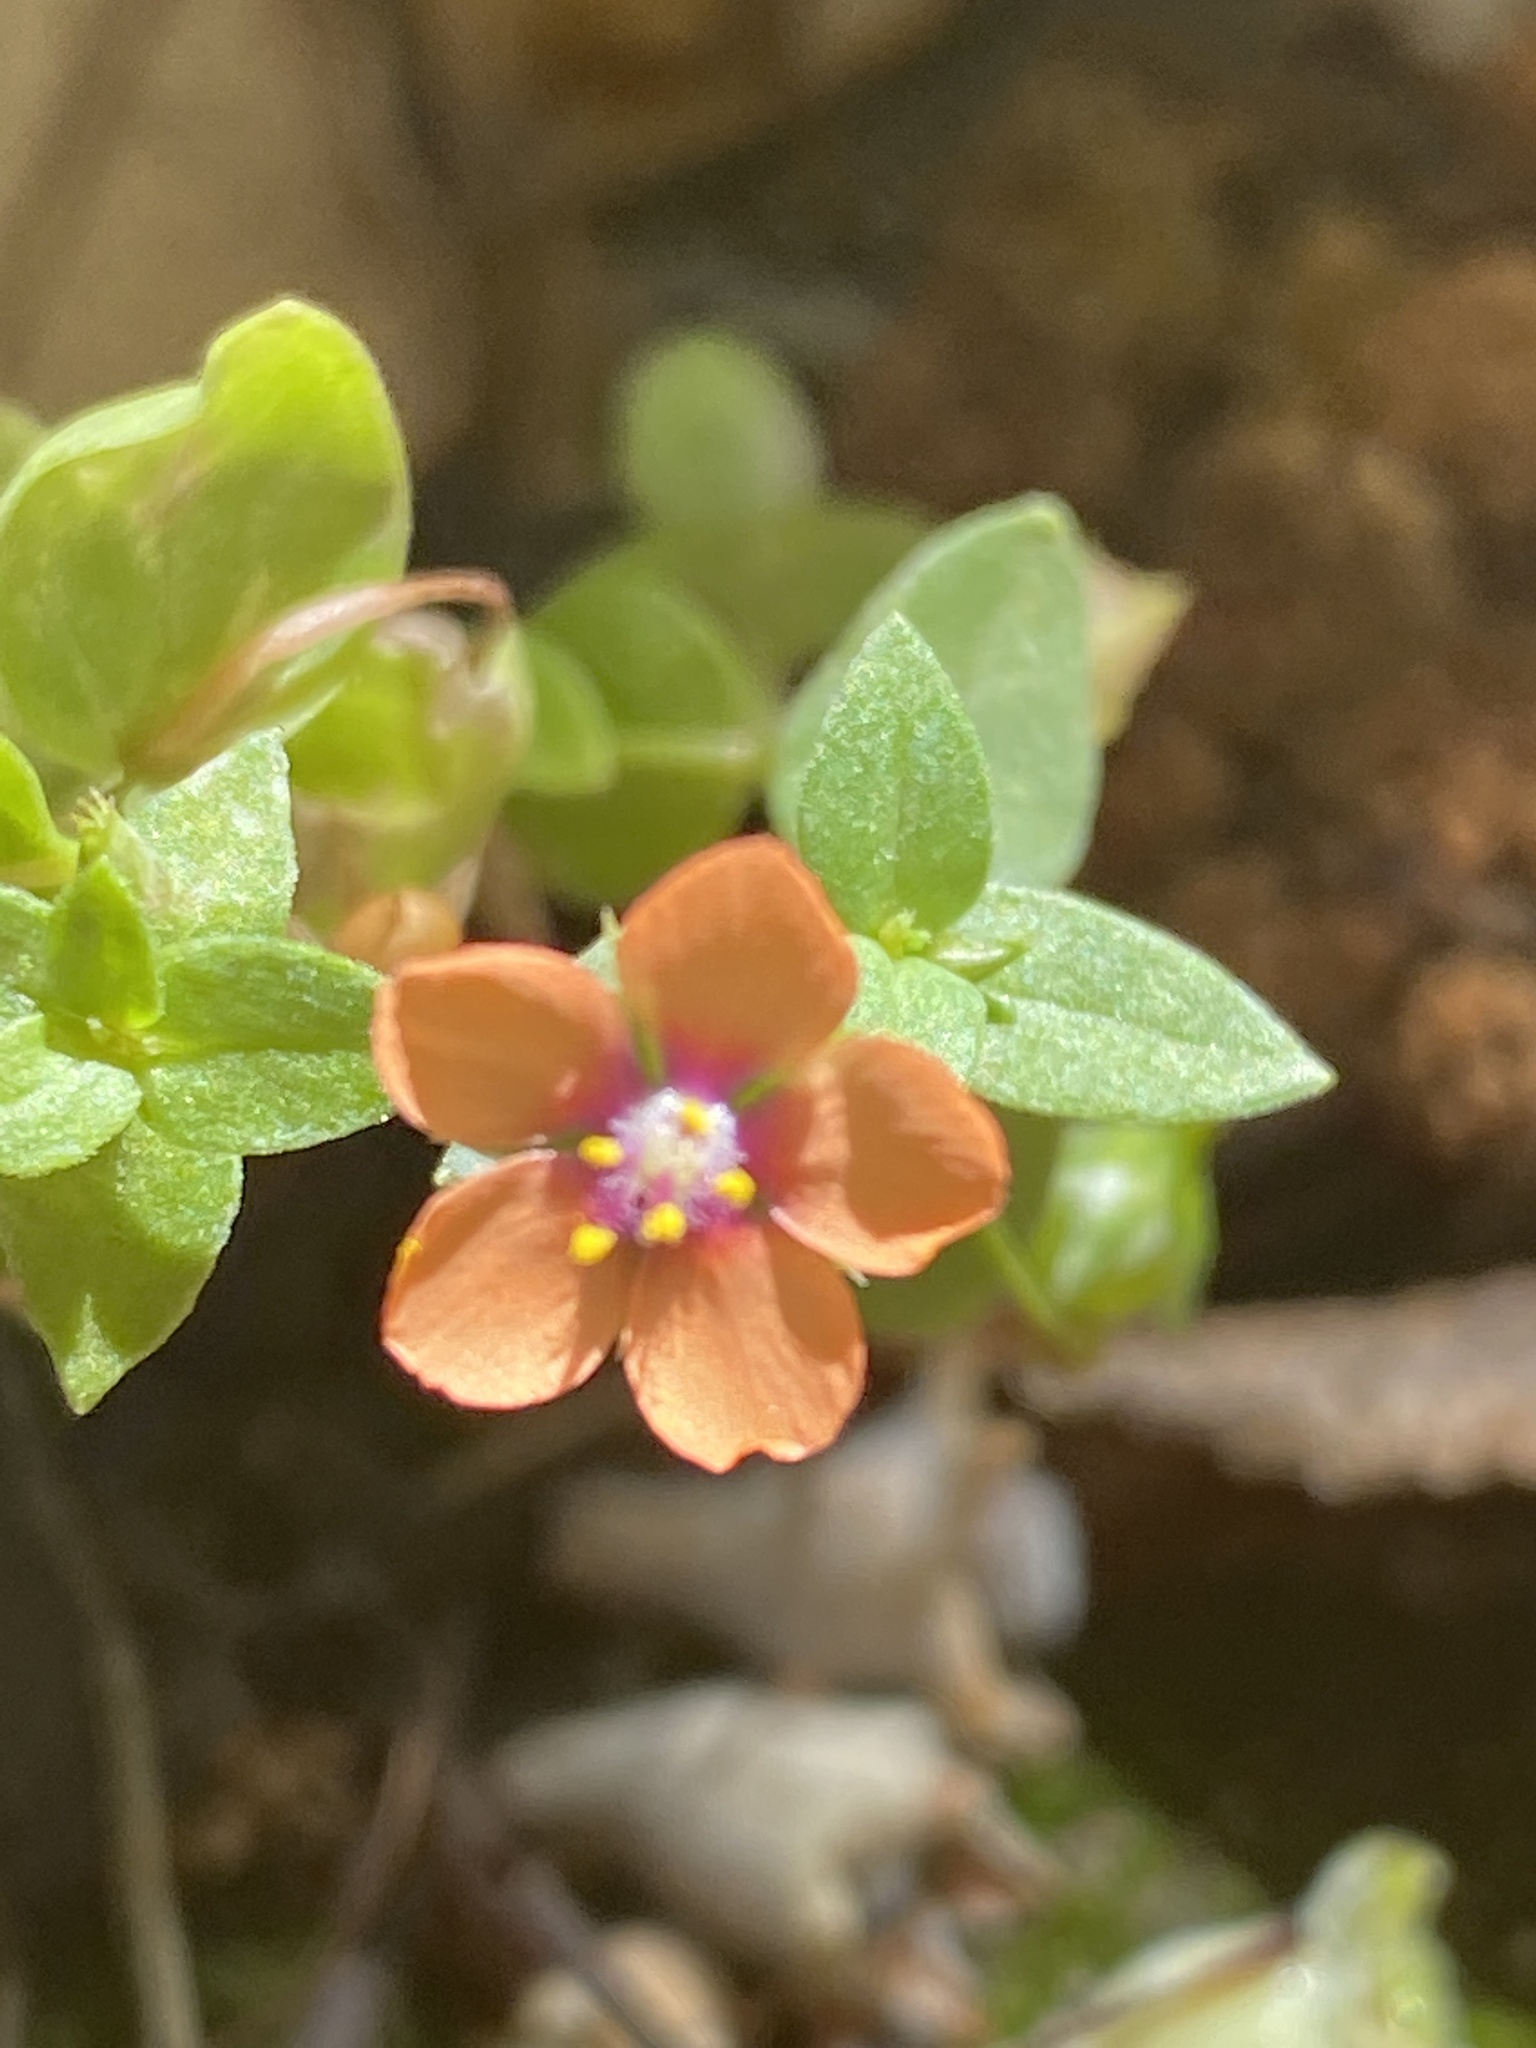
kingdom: Plantae
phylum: Tracheophyta
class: Magnoliopsida
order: Ericales
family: Primulaceae
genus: Lysimachia
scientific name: Lysimachia arvensis
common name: Scarlet pimpernel
